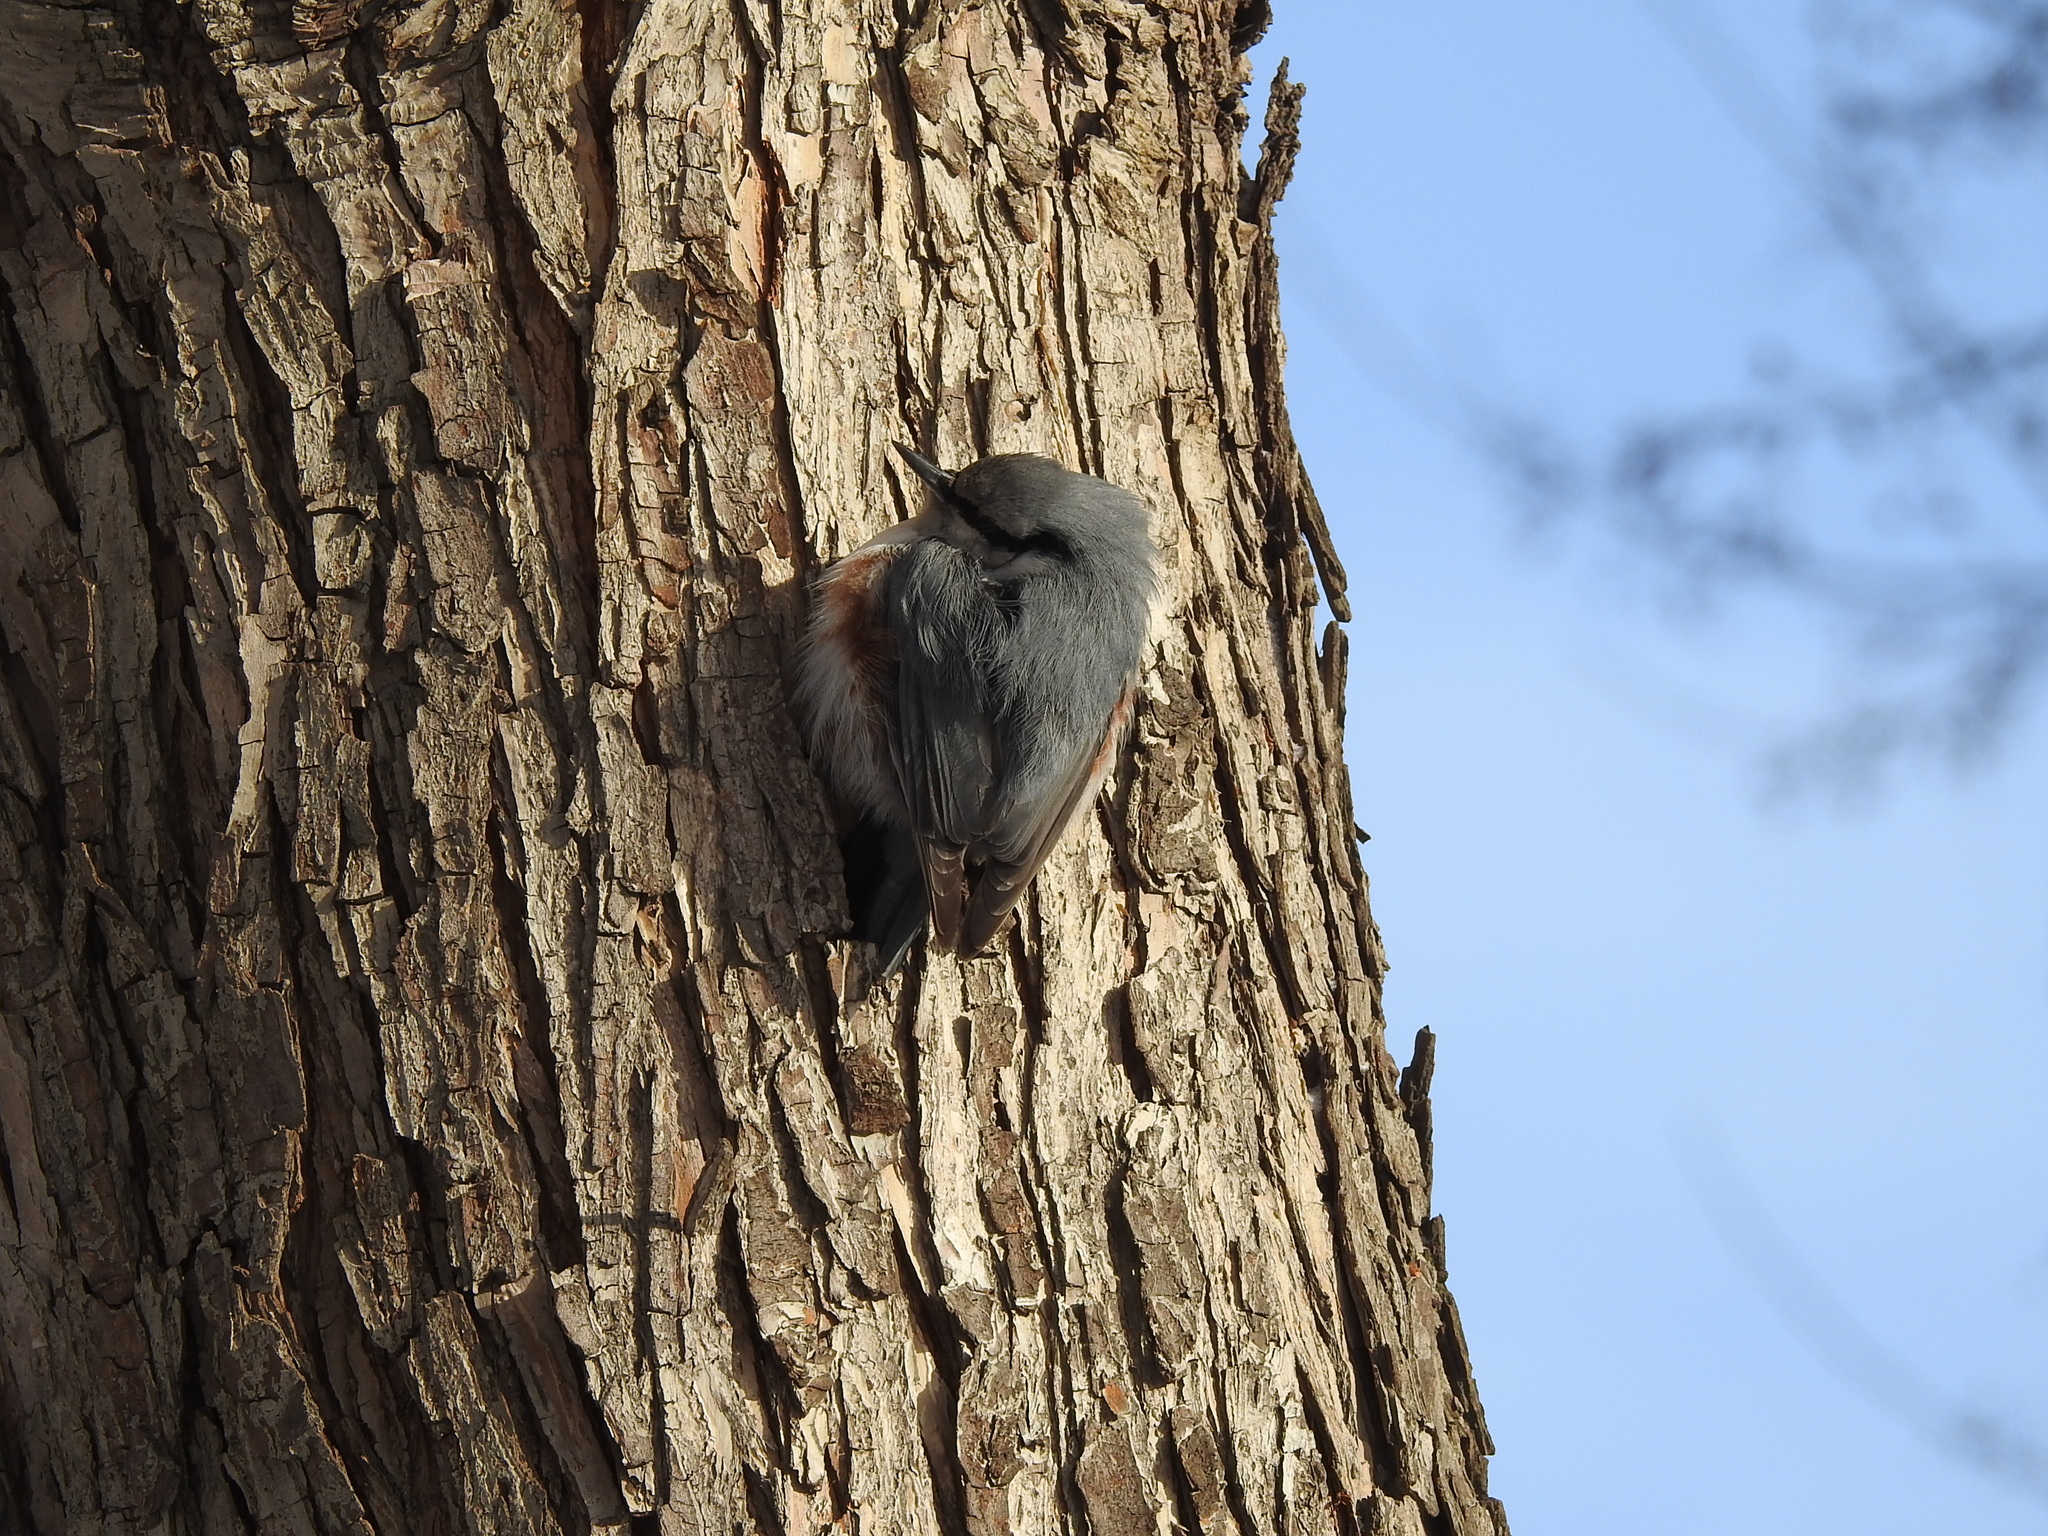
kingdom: Animalia
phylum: Chordata
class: Aves
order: Passeriformes
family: Sittidae
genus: Sitta
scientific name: Sitta europaea
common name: Eurasian nuthatch
